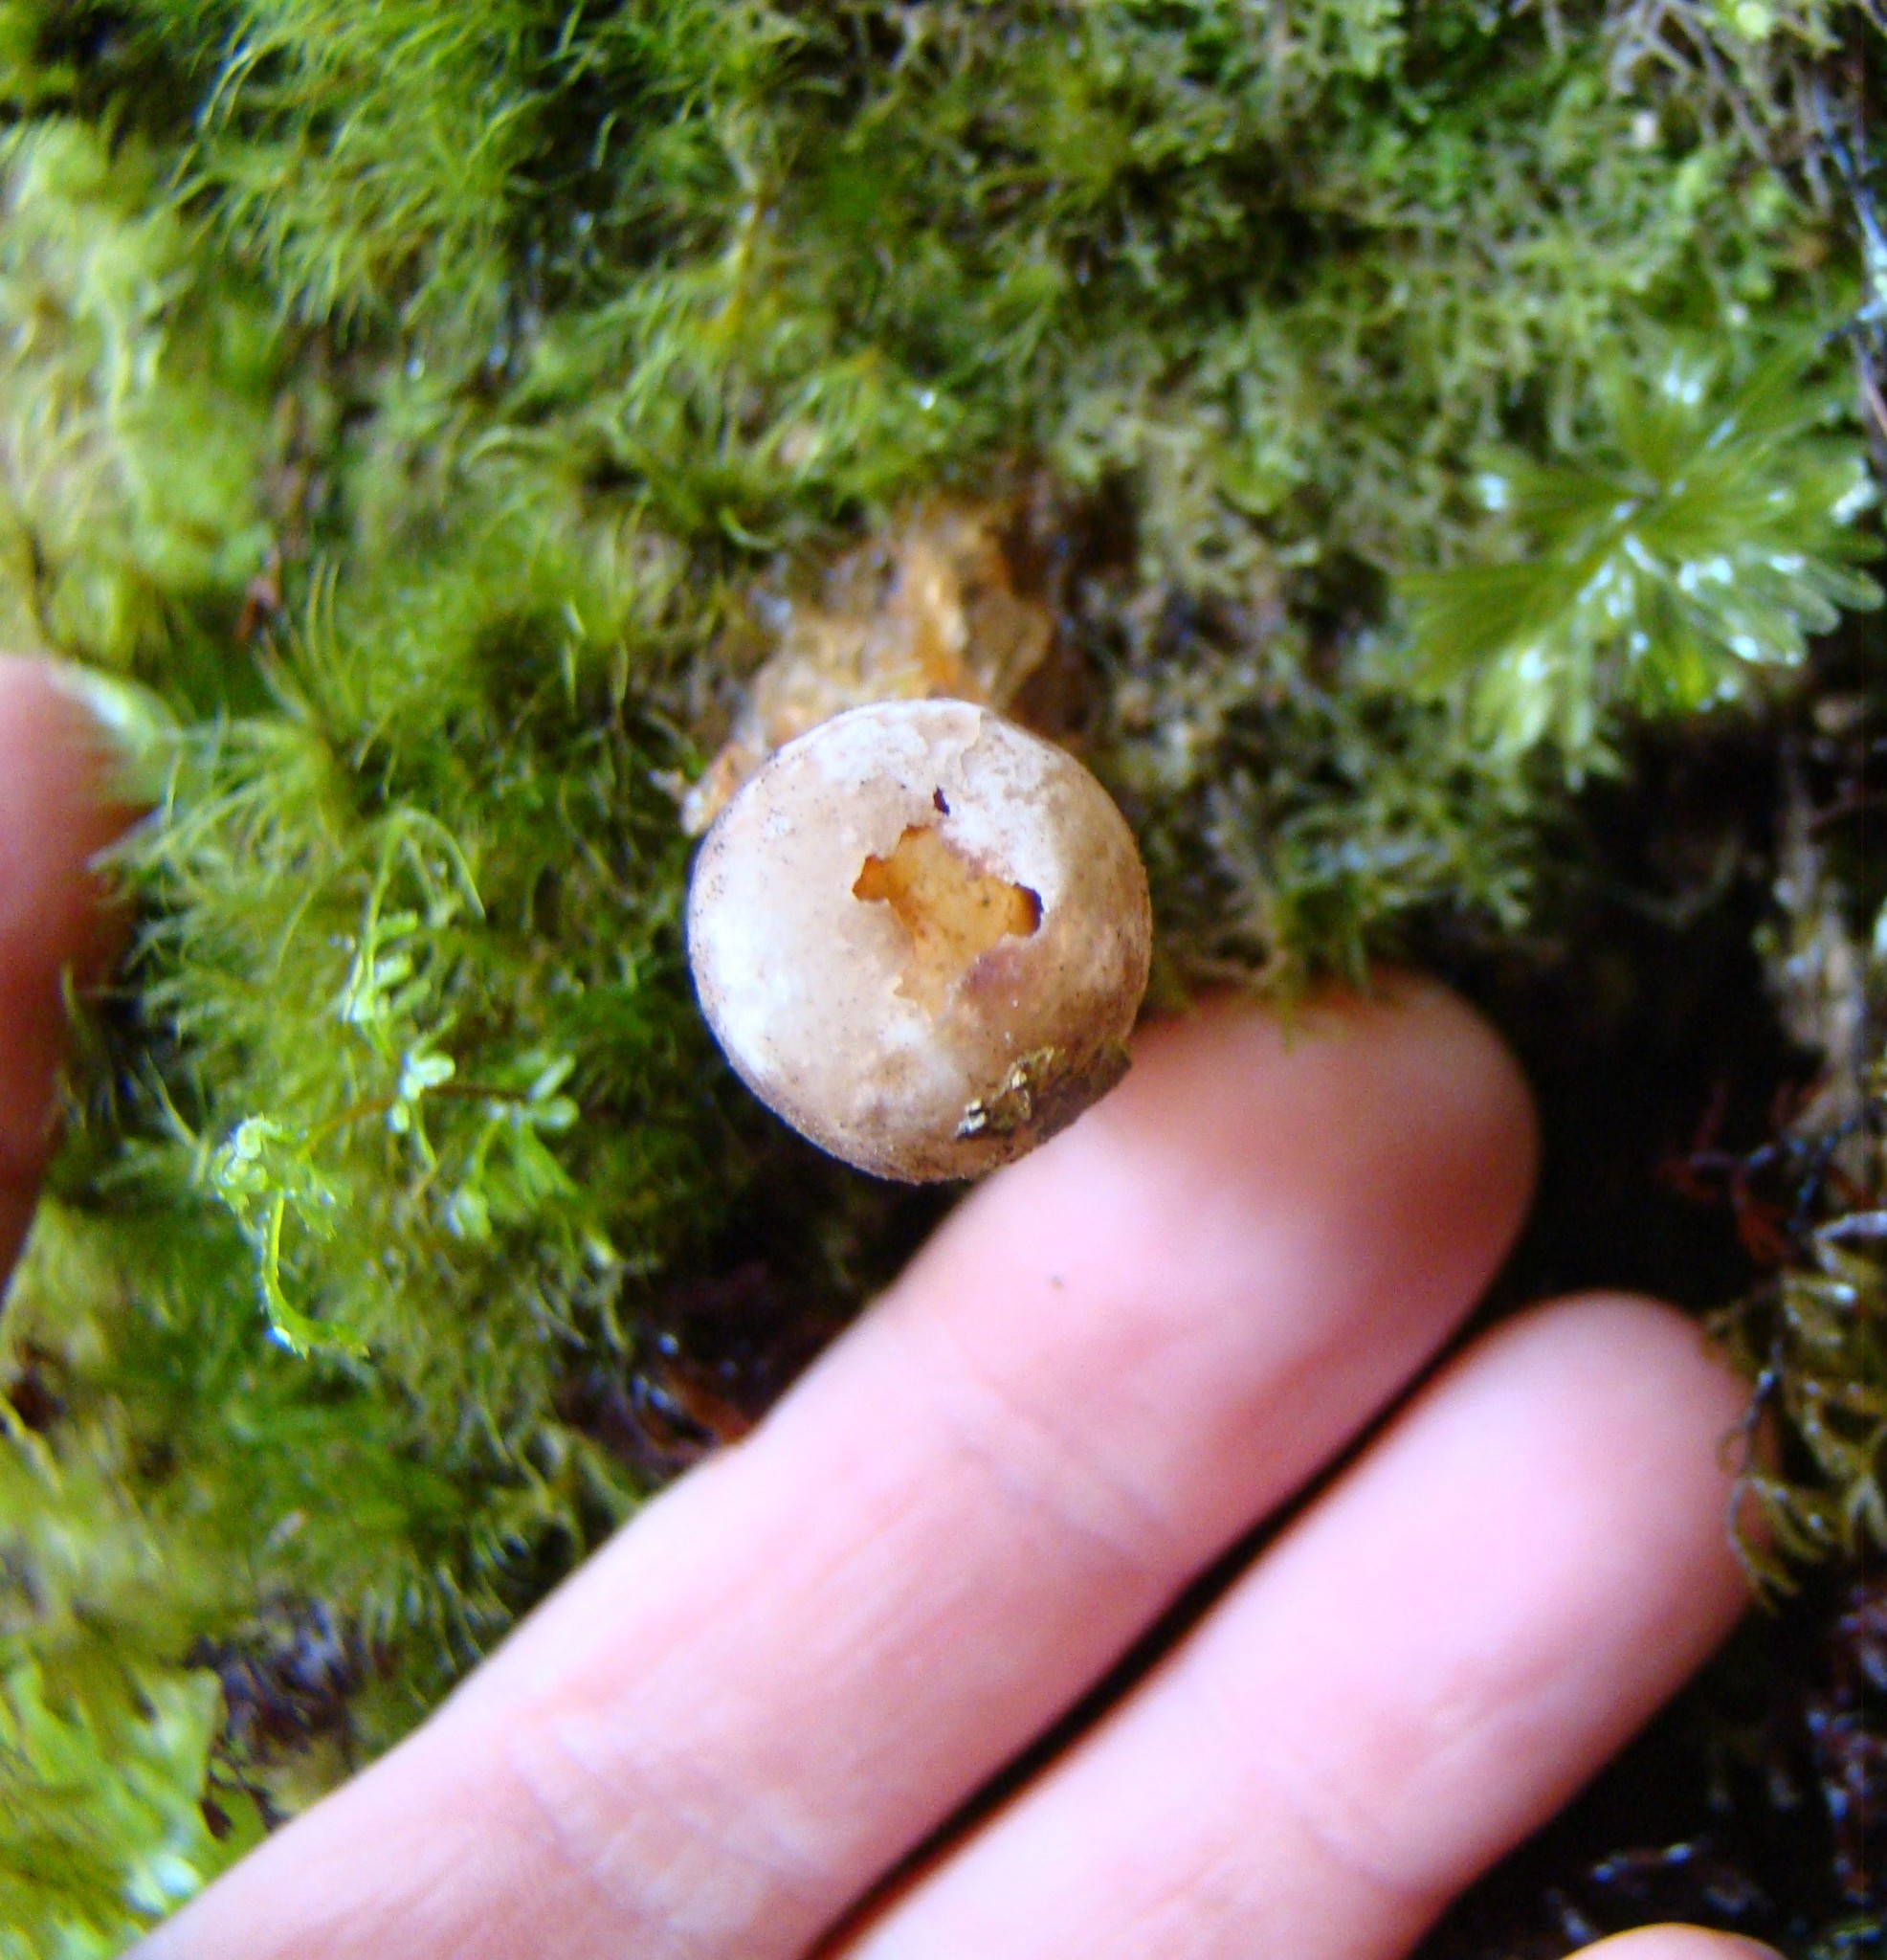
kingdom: Fungi
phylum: Basidiomycota
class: Agaricomycetes
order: Boletales
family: Calostomataceae
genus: Calostoma
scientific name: Calostoma rodwayi
